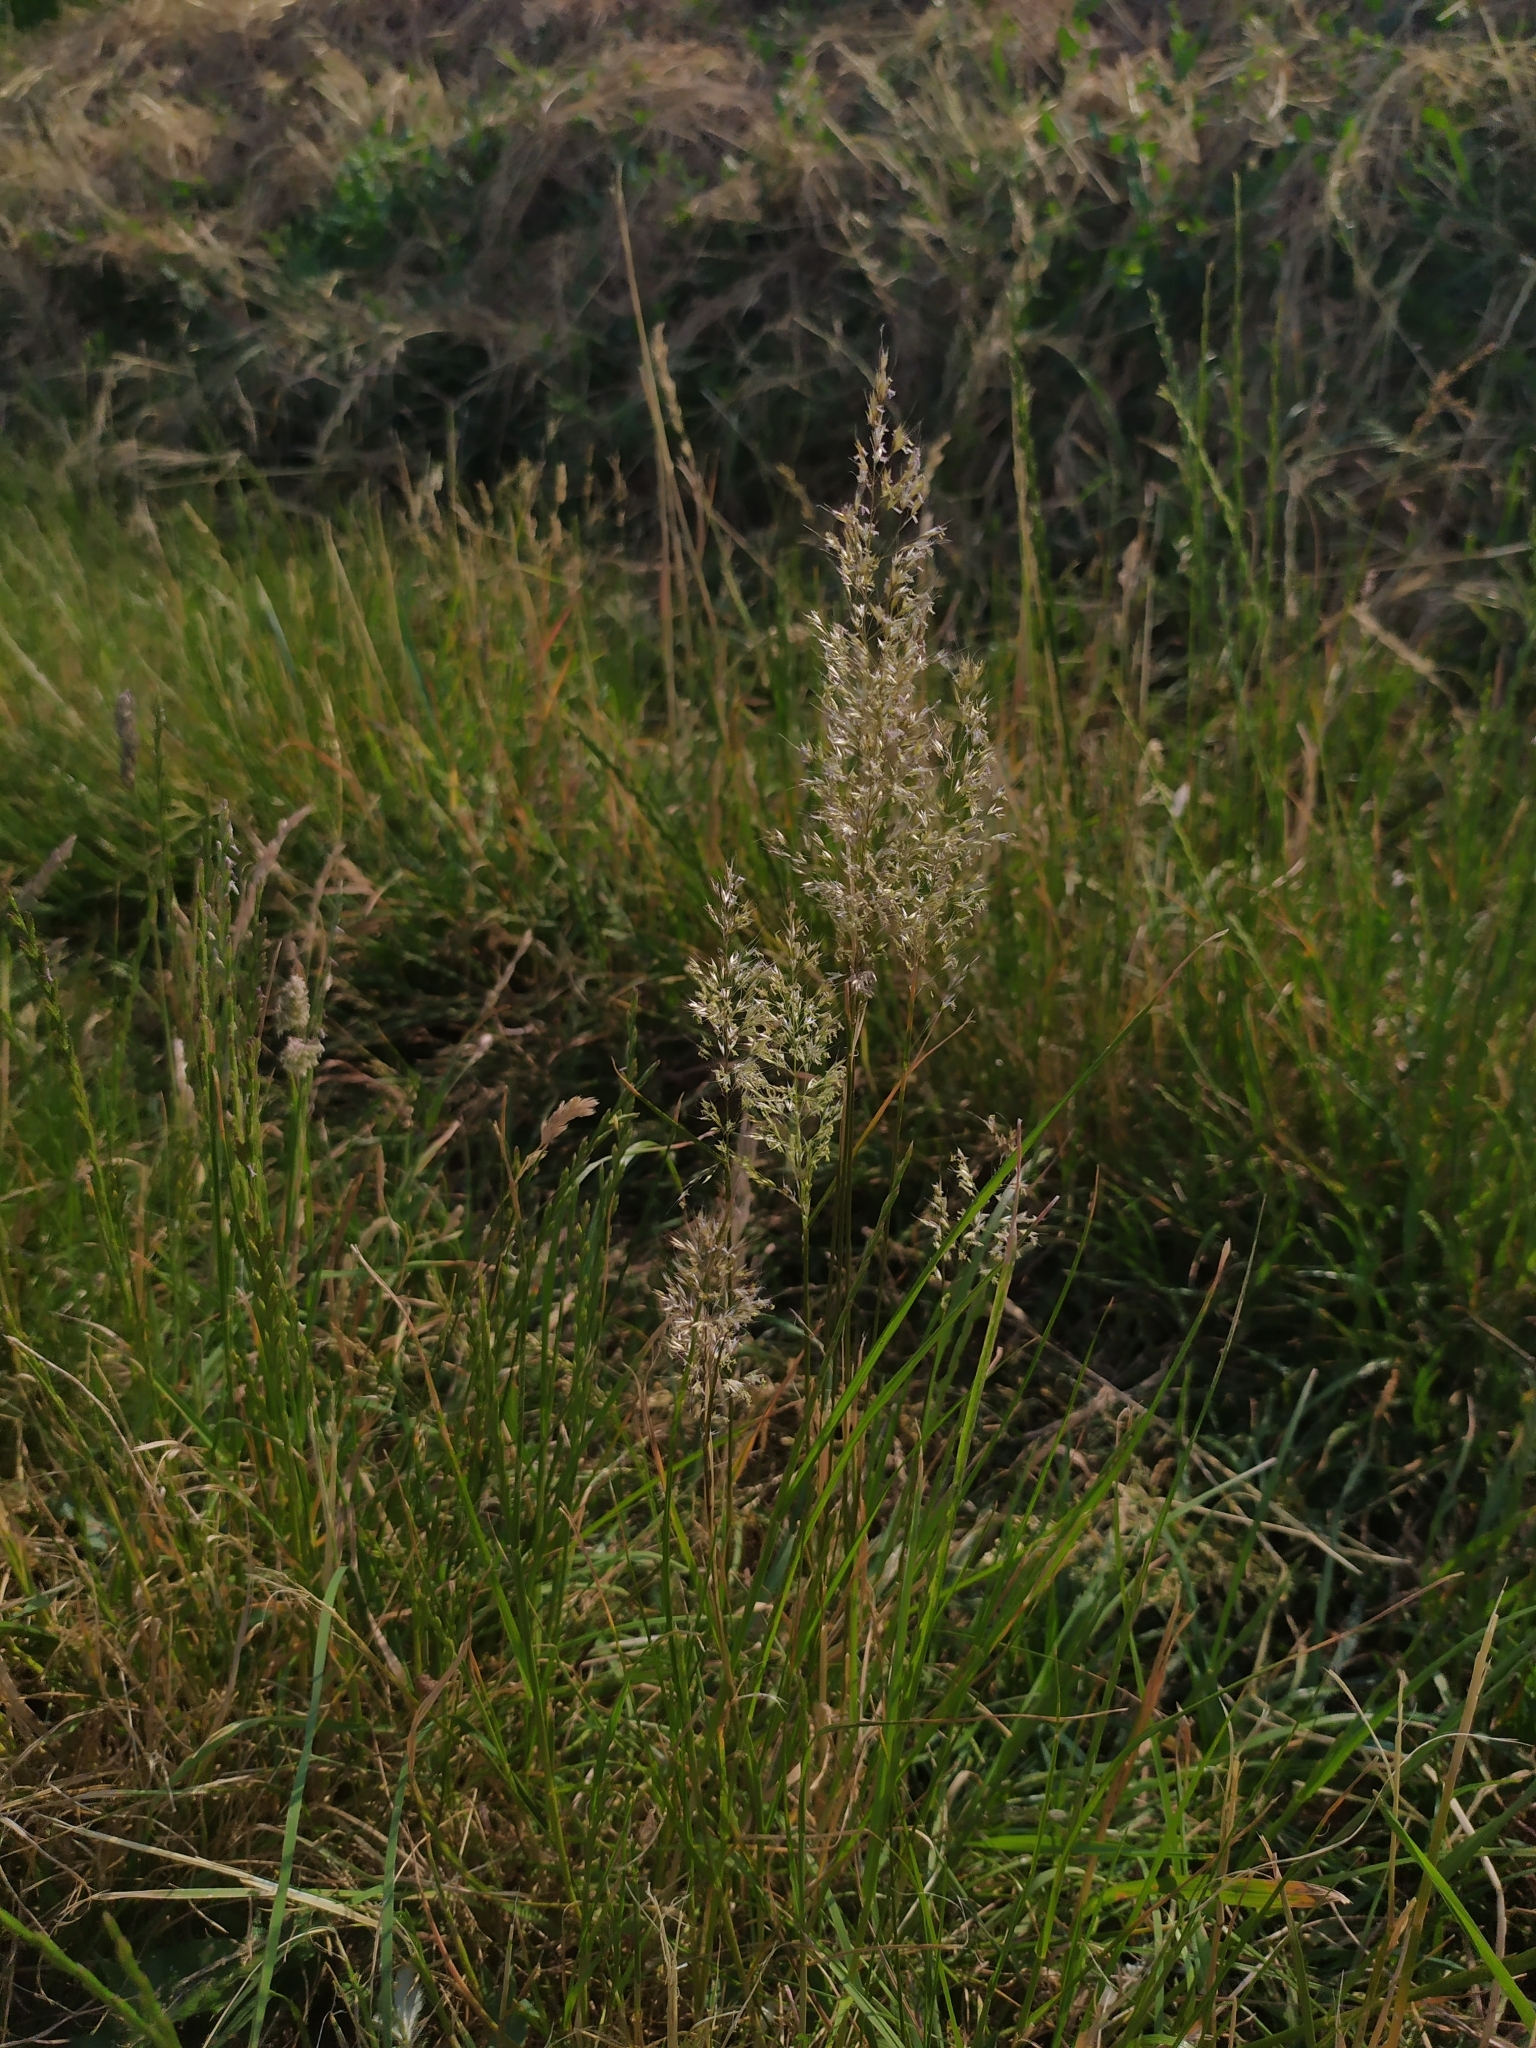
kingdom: Plantae
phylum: Tracheophyta
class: Liliopsida
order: Poales
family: Poaceae
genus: Trisetum
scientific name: Trisetum flavescens
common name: Yellow oat-grass
